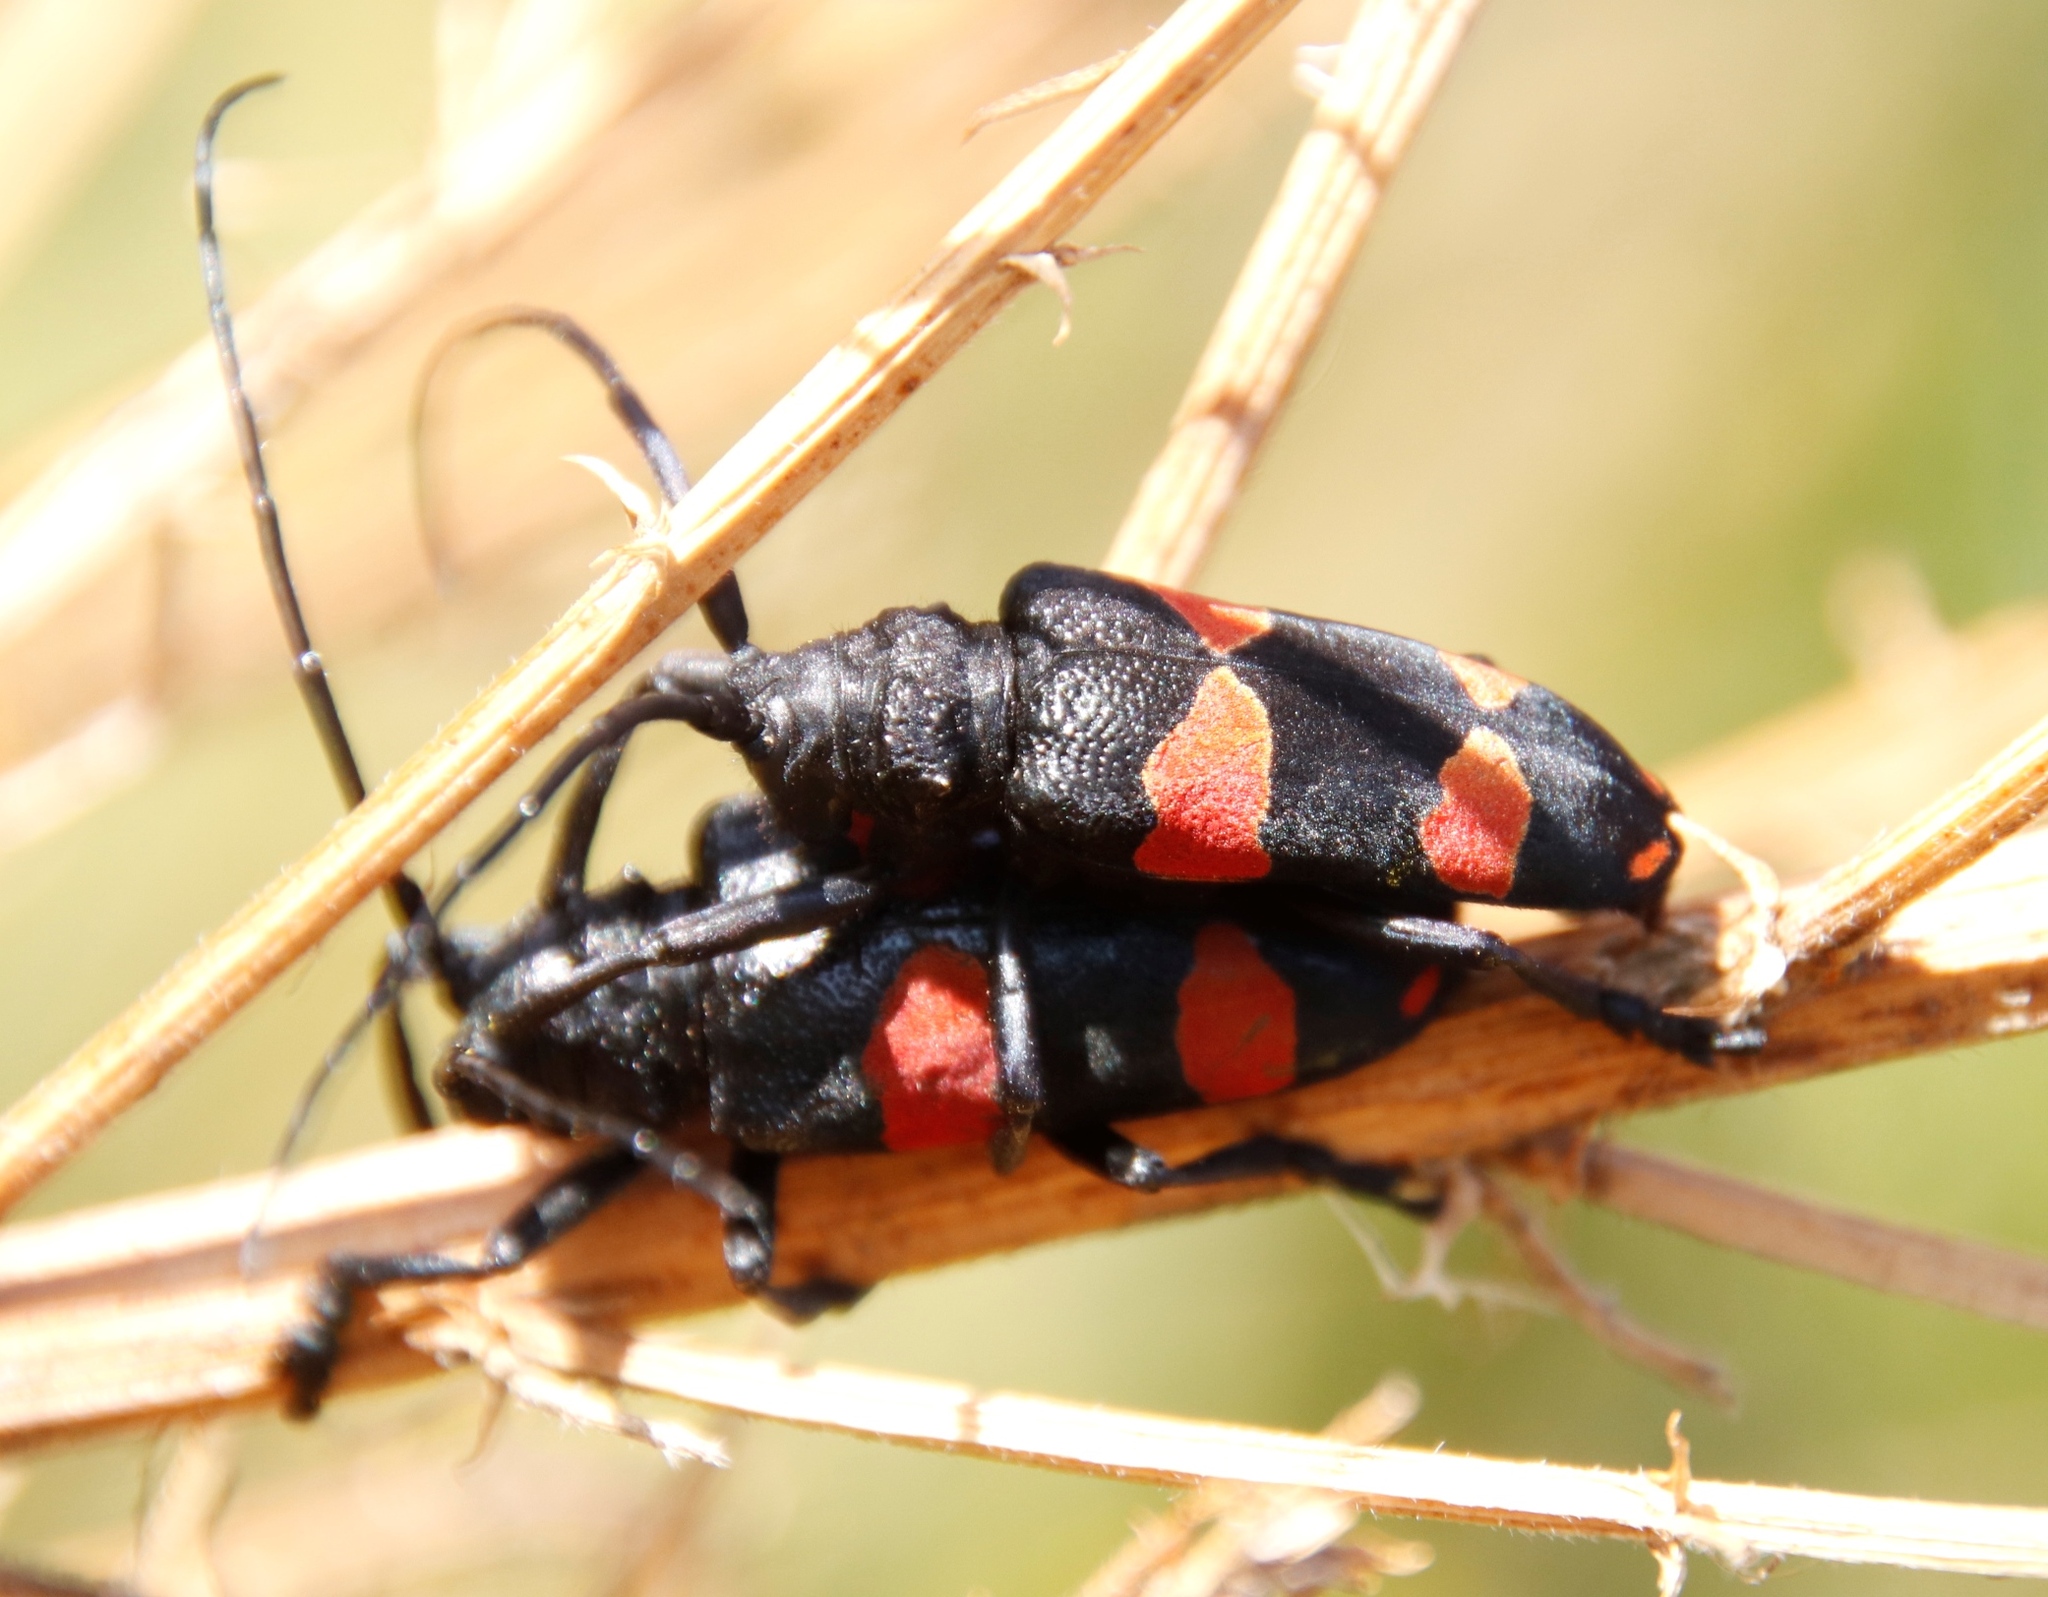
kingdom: Animalia
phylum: Arthropoda
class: Insecta
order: Coleoptera
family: Cerambycidae
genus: Ceroplesis
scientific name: Ceroplesis aethiops
